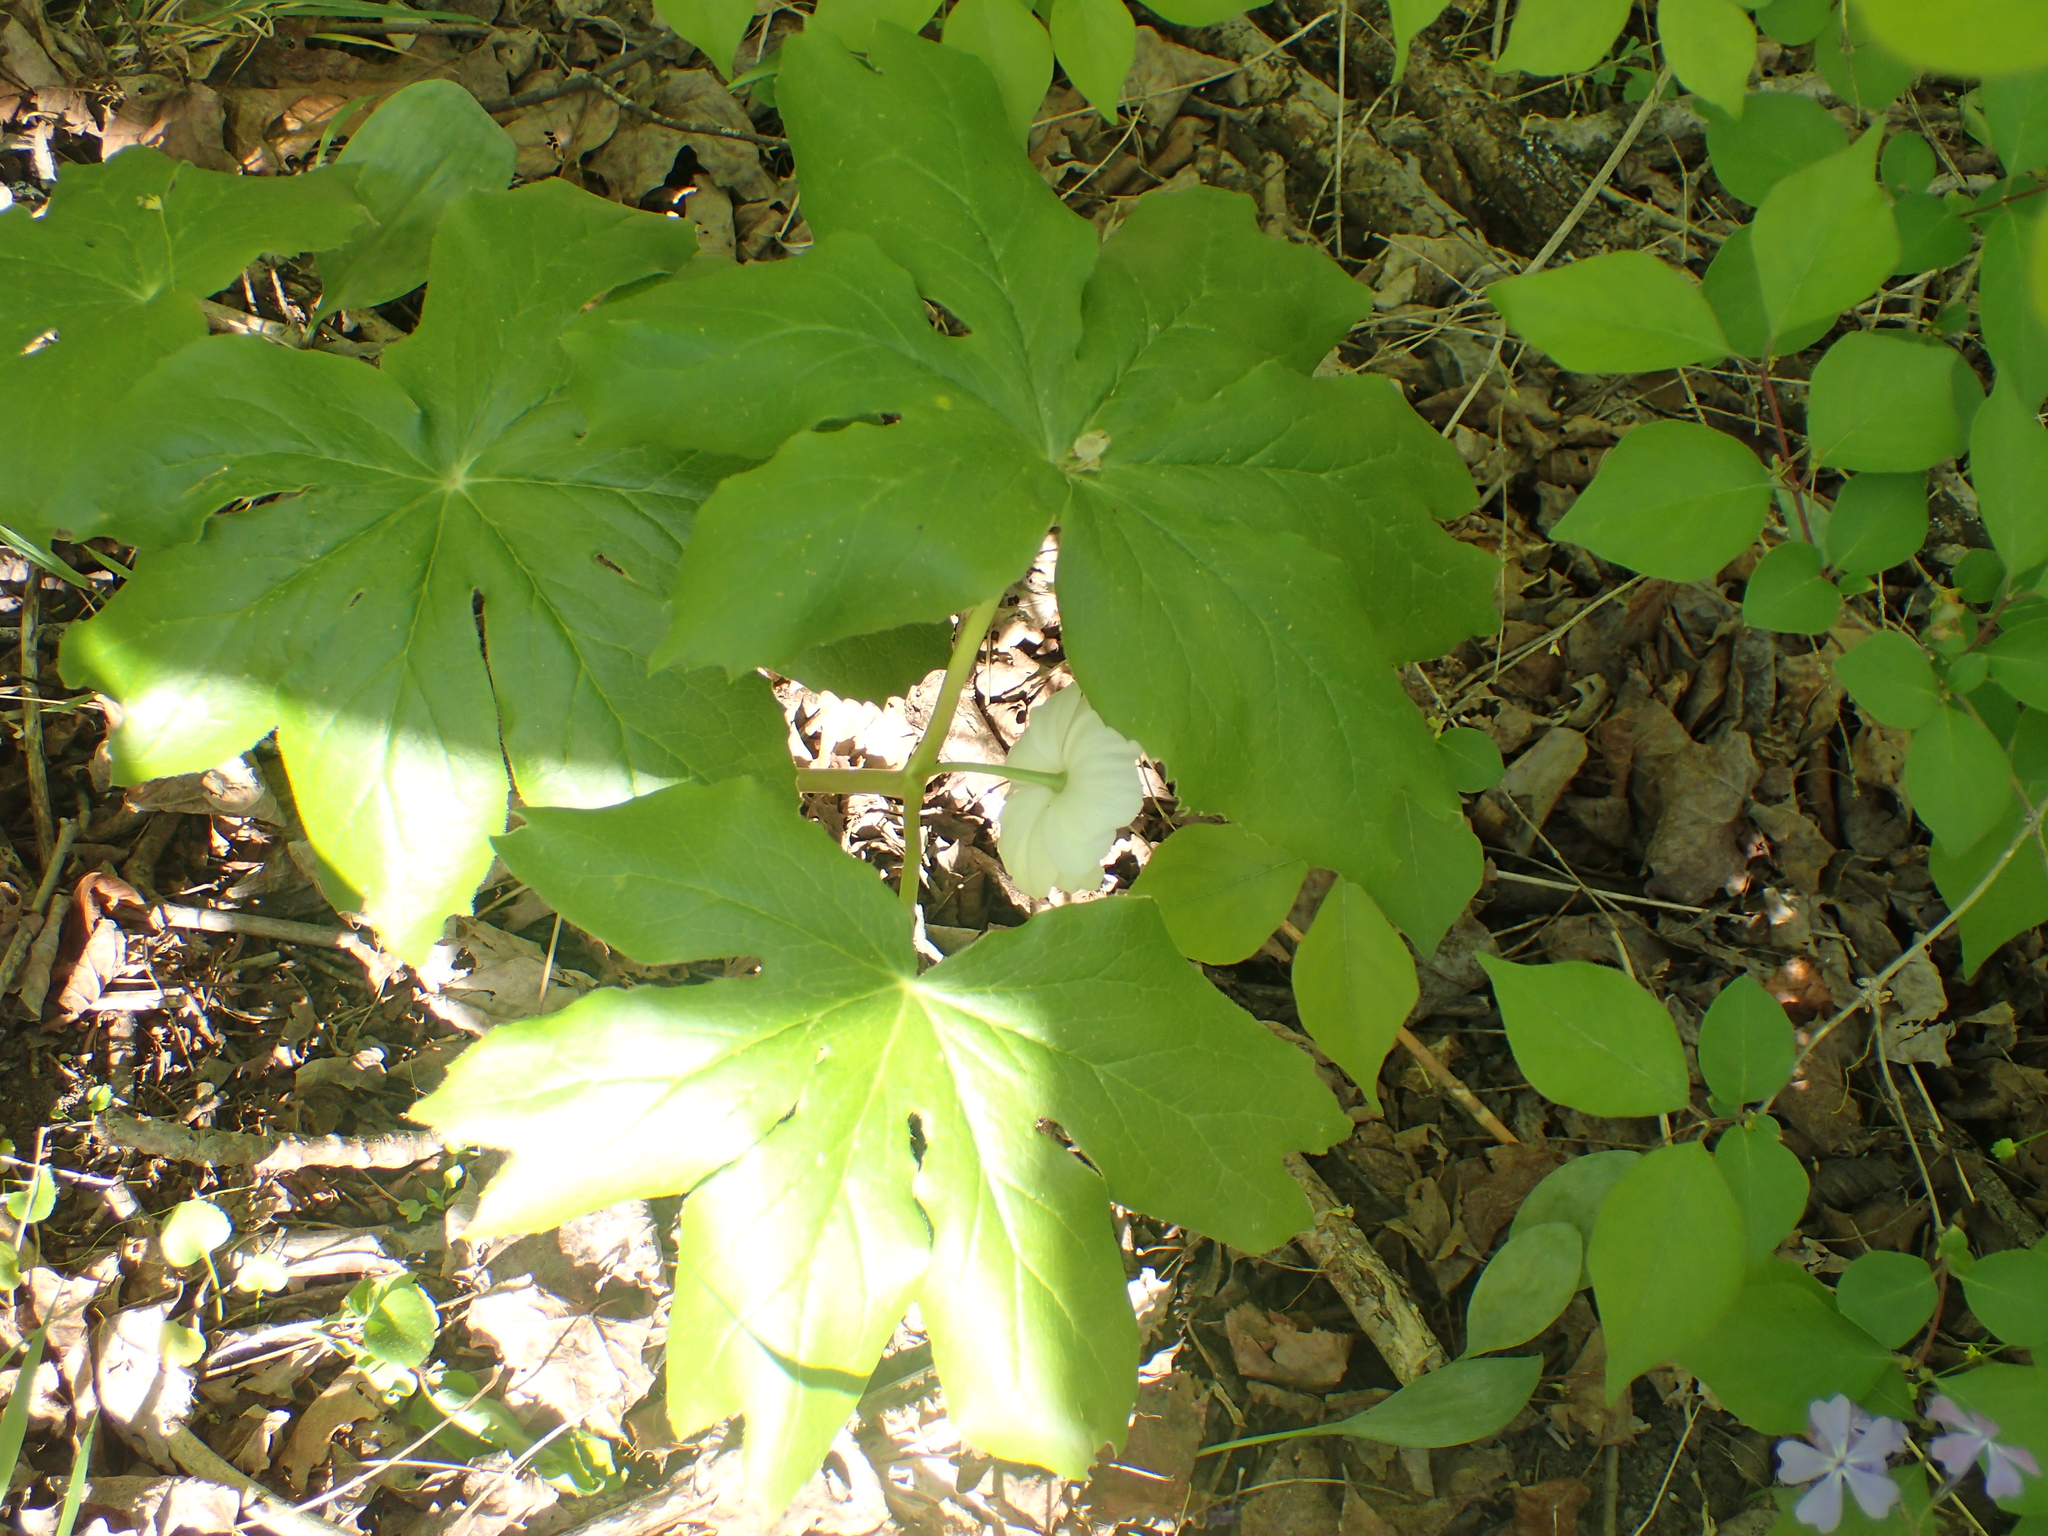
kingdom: Plantae
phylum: Tracheophyta
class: Magnoliopsida
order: Ranunculales
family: Berberidaceae
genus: Podophyllum
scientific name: Podophyllum peltatum
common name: Wild mandrake
